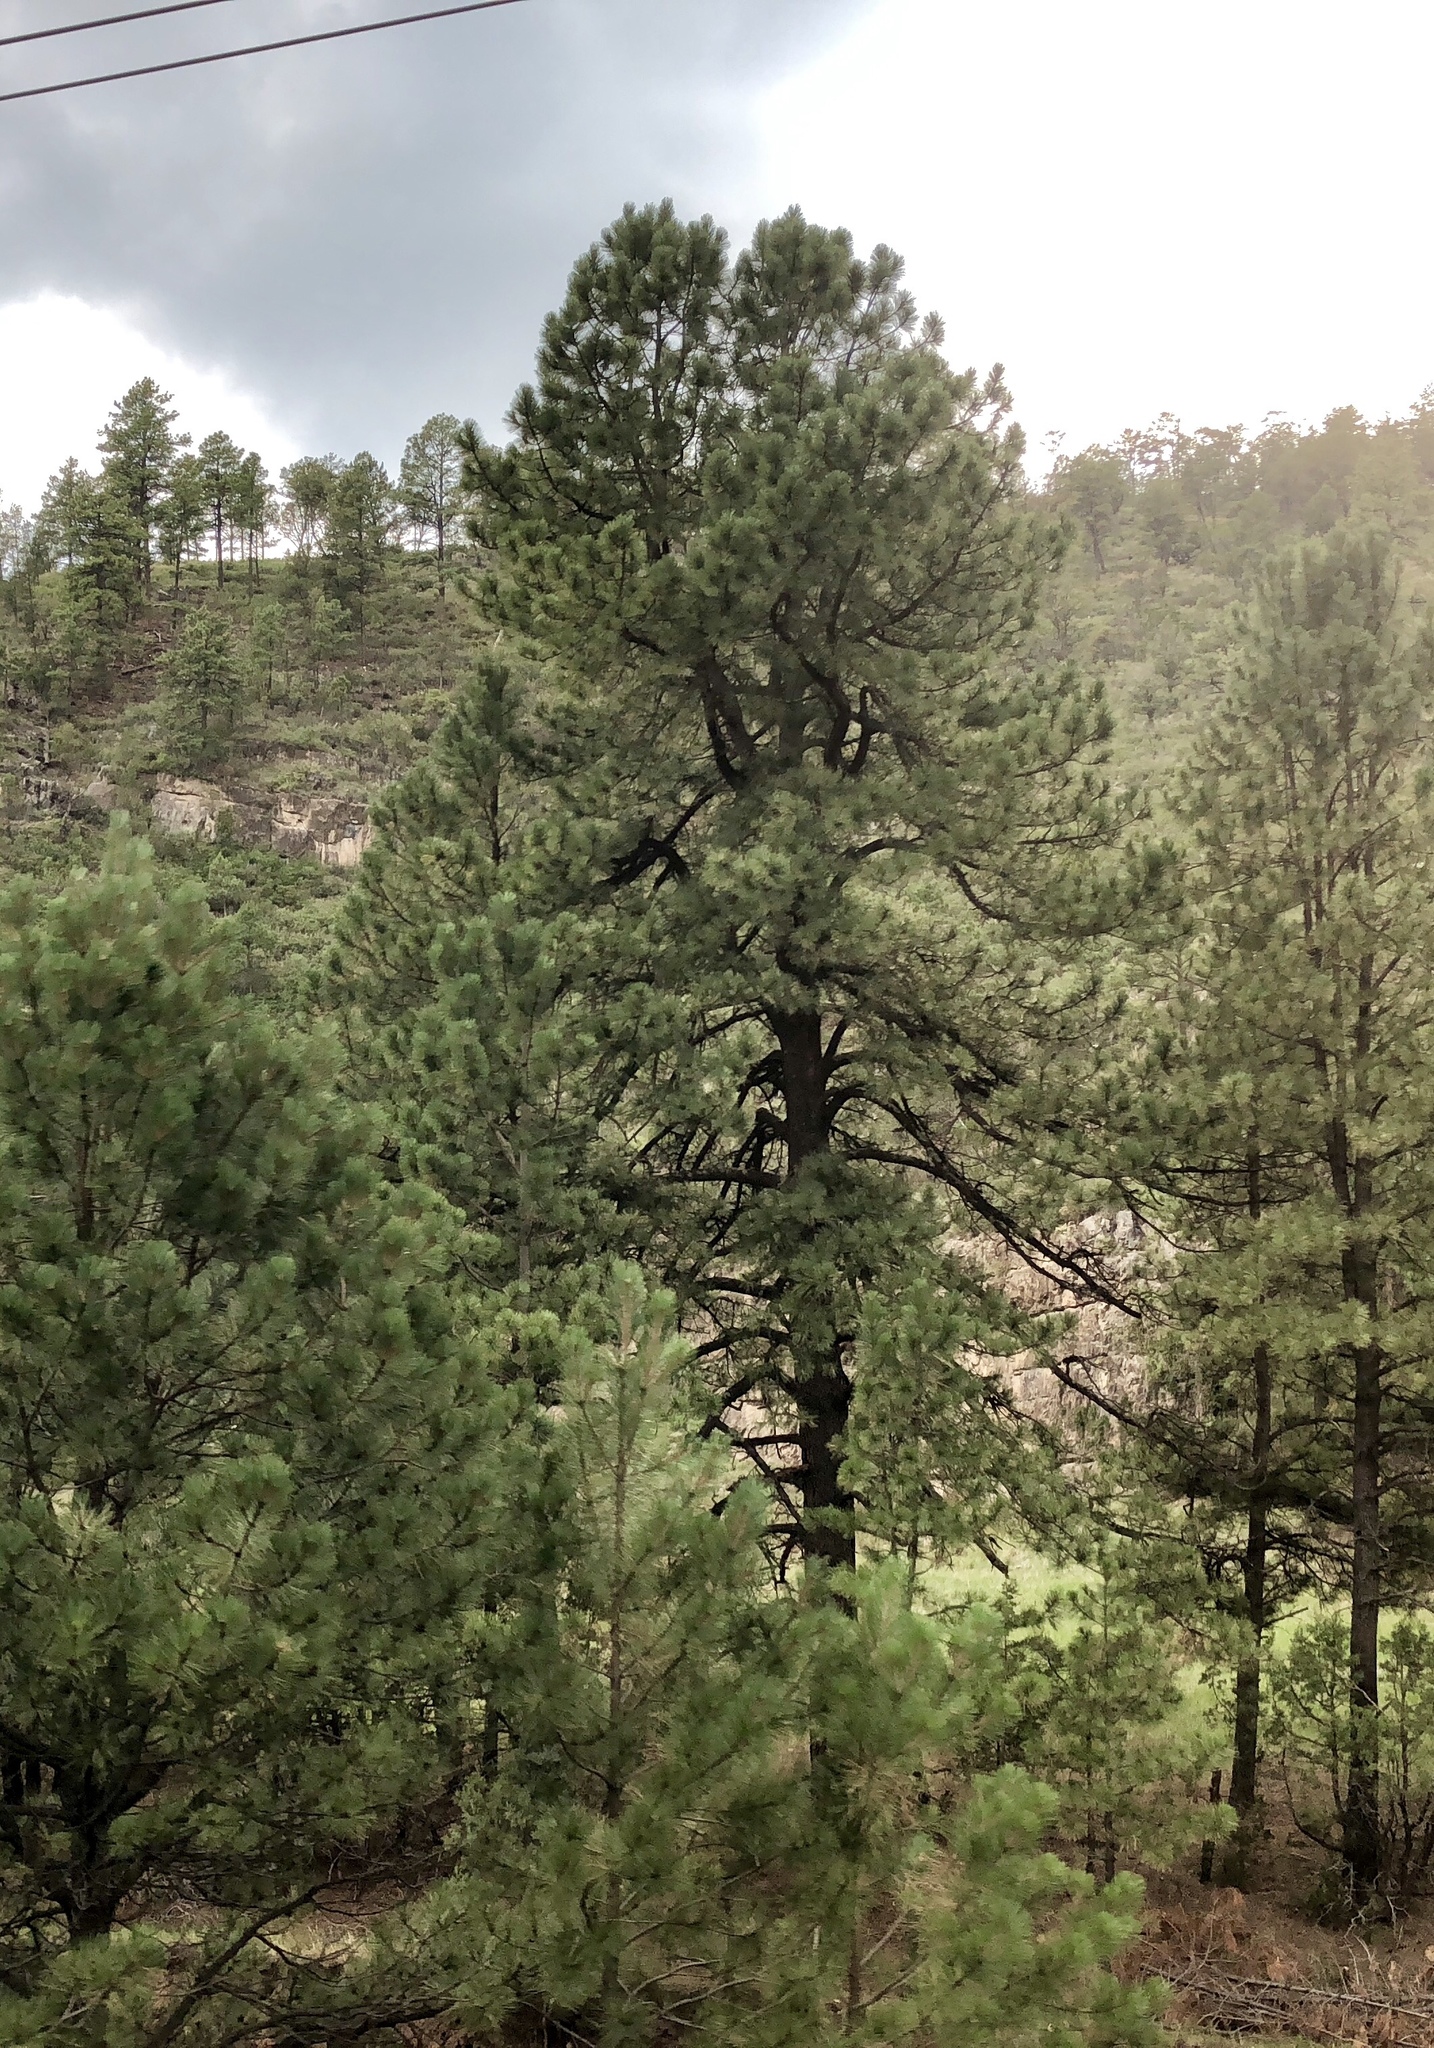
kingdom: Plantae
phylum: Tracheophyta
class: Pinopsida
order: Pinales
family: Pinaceae
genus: Pinus
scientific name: Pinus ponderosa
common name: Western yellow-pine
